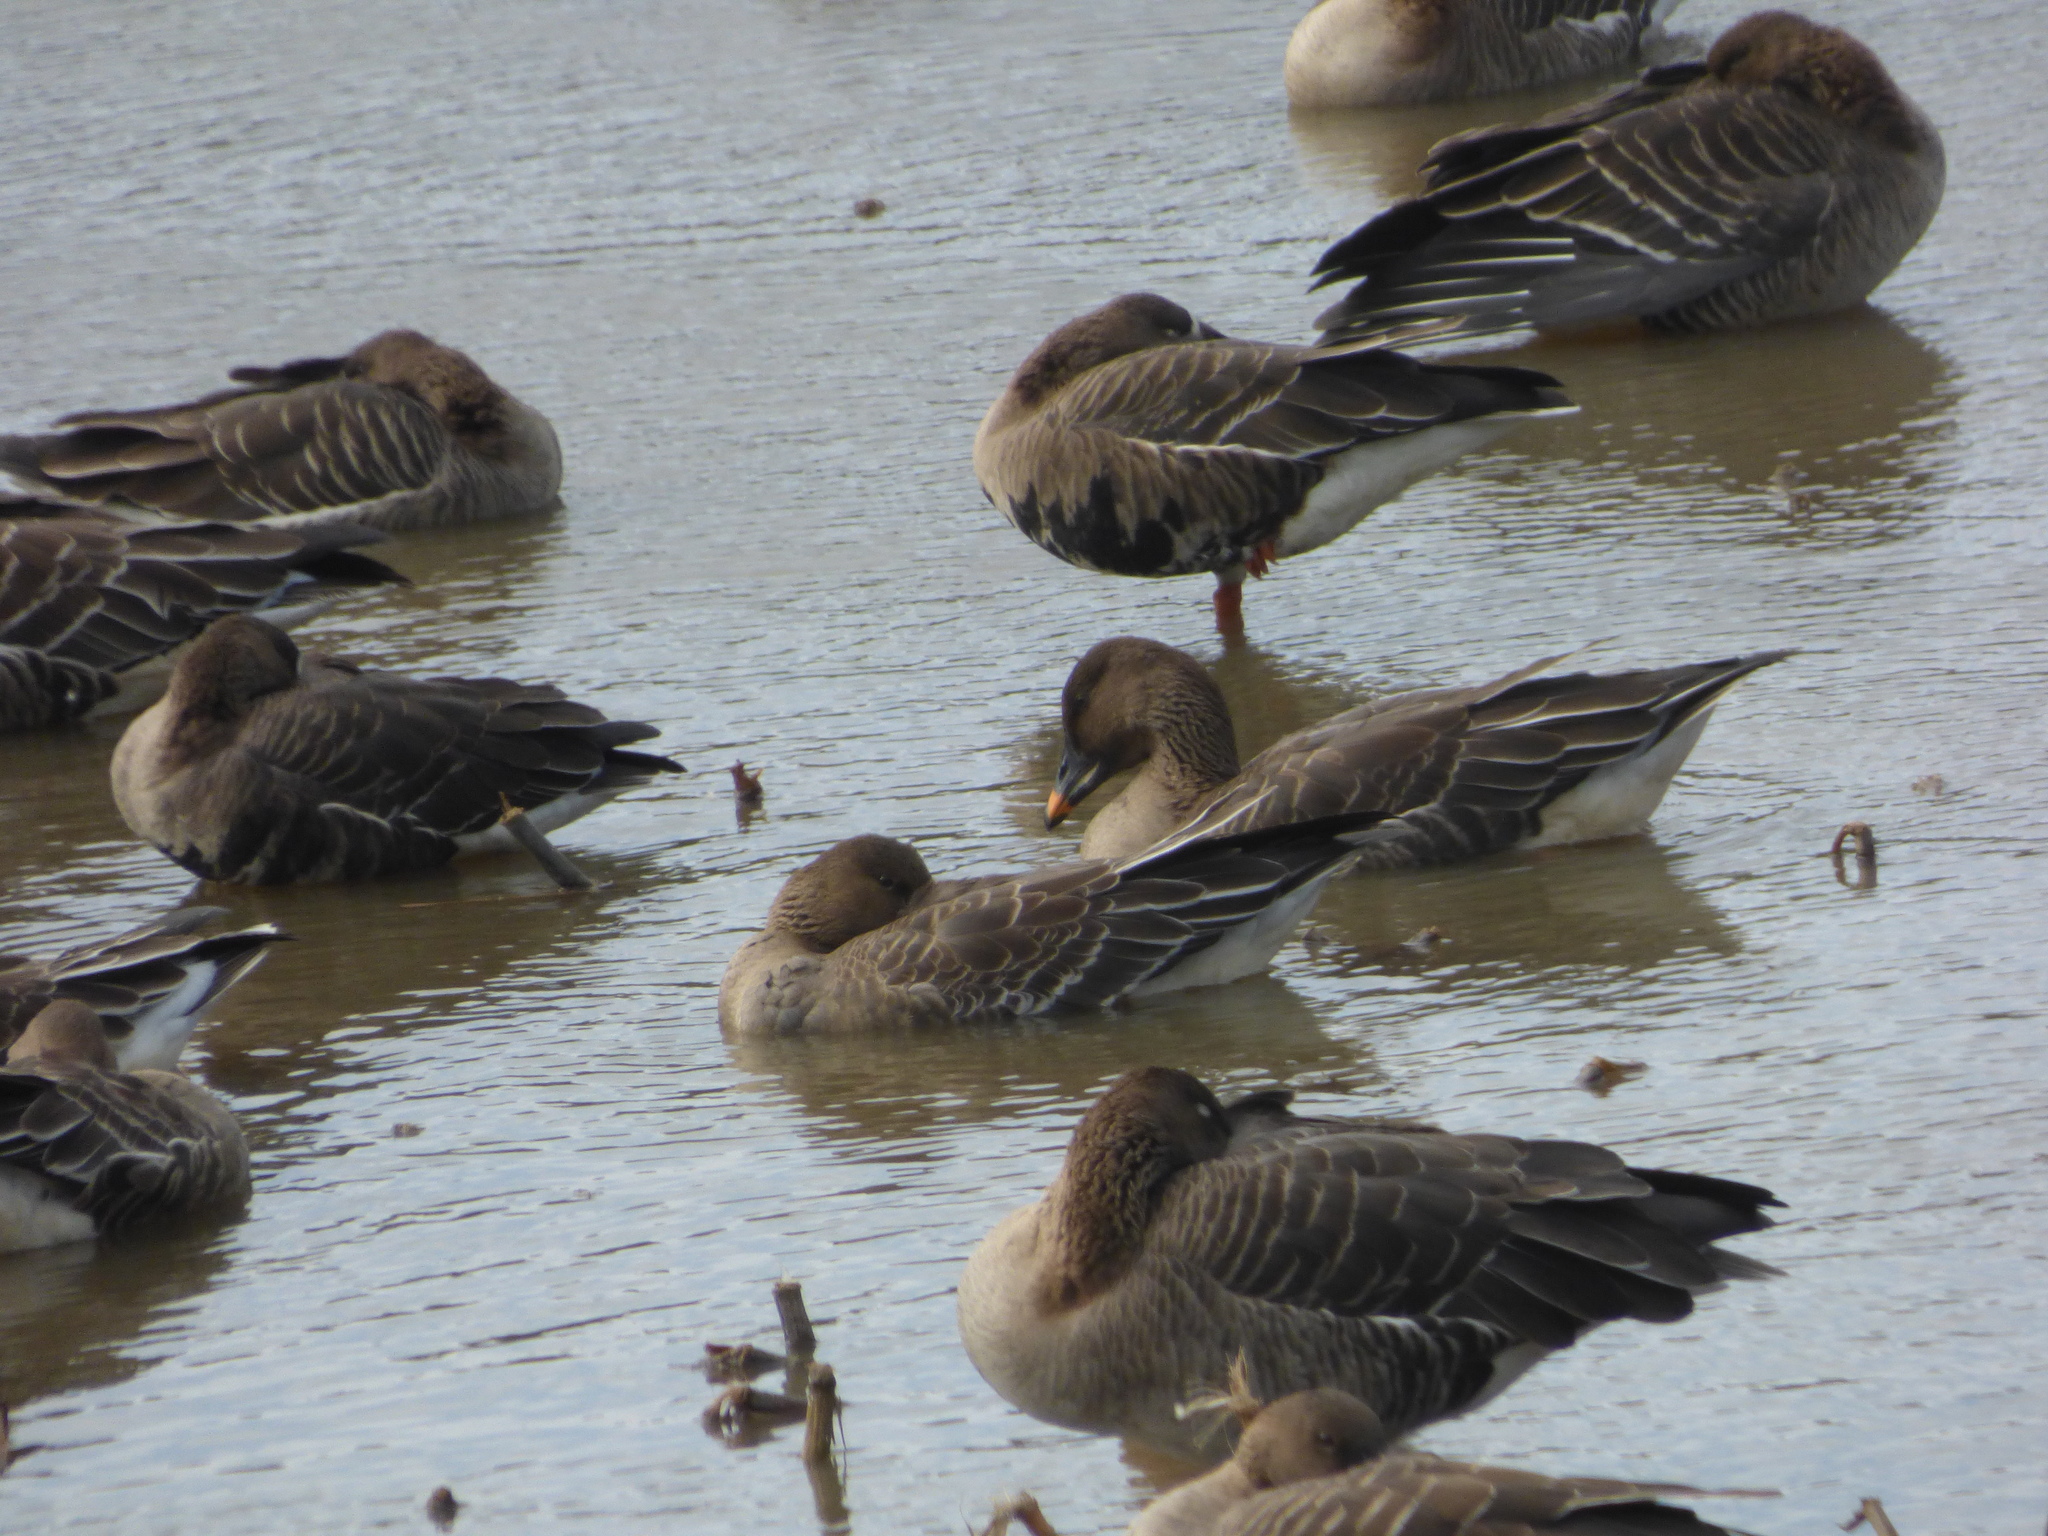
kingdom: Animalia
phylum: Chordata
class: Aves
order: Anseriformes
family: Anatidae
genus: Anser
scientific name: Anser fabalis
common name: Bean goose
